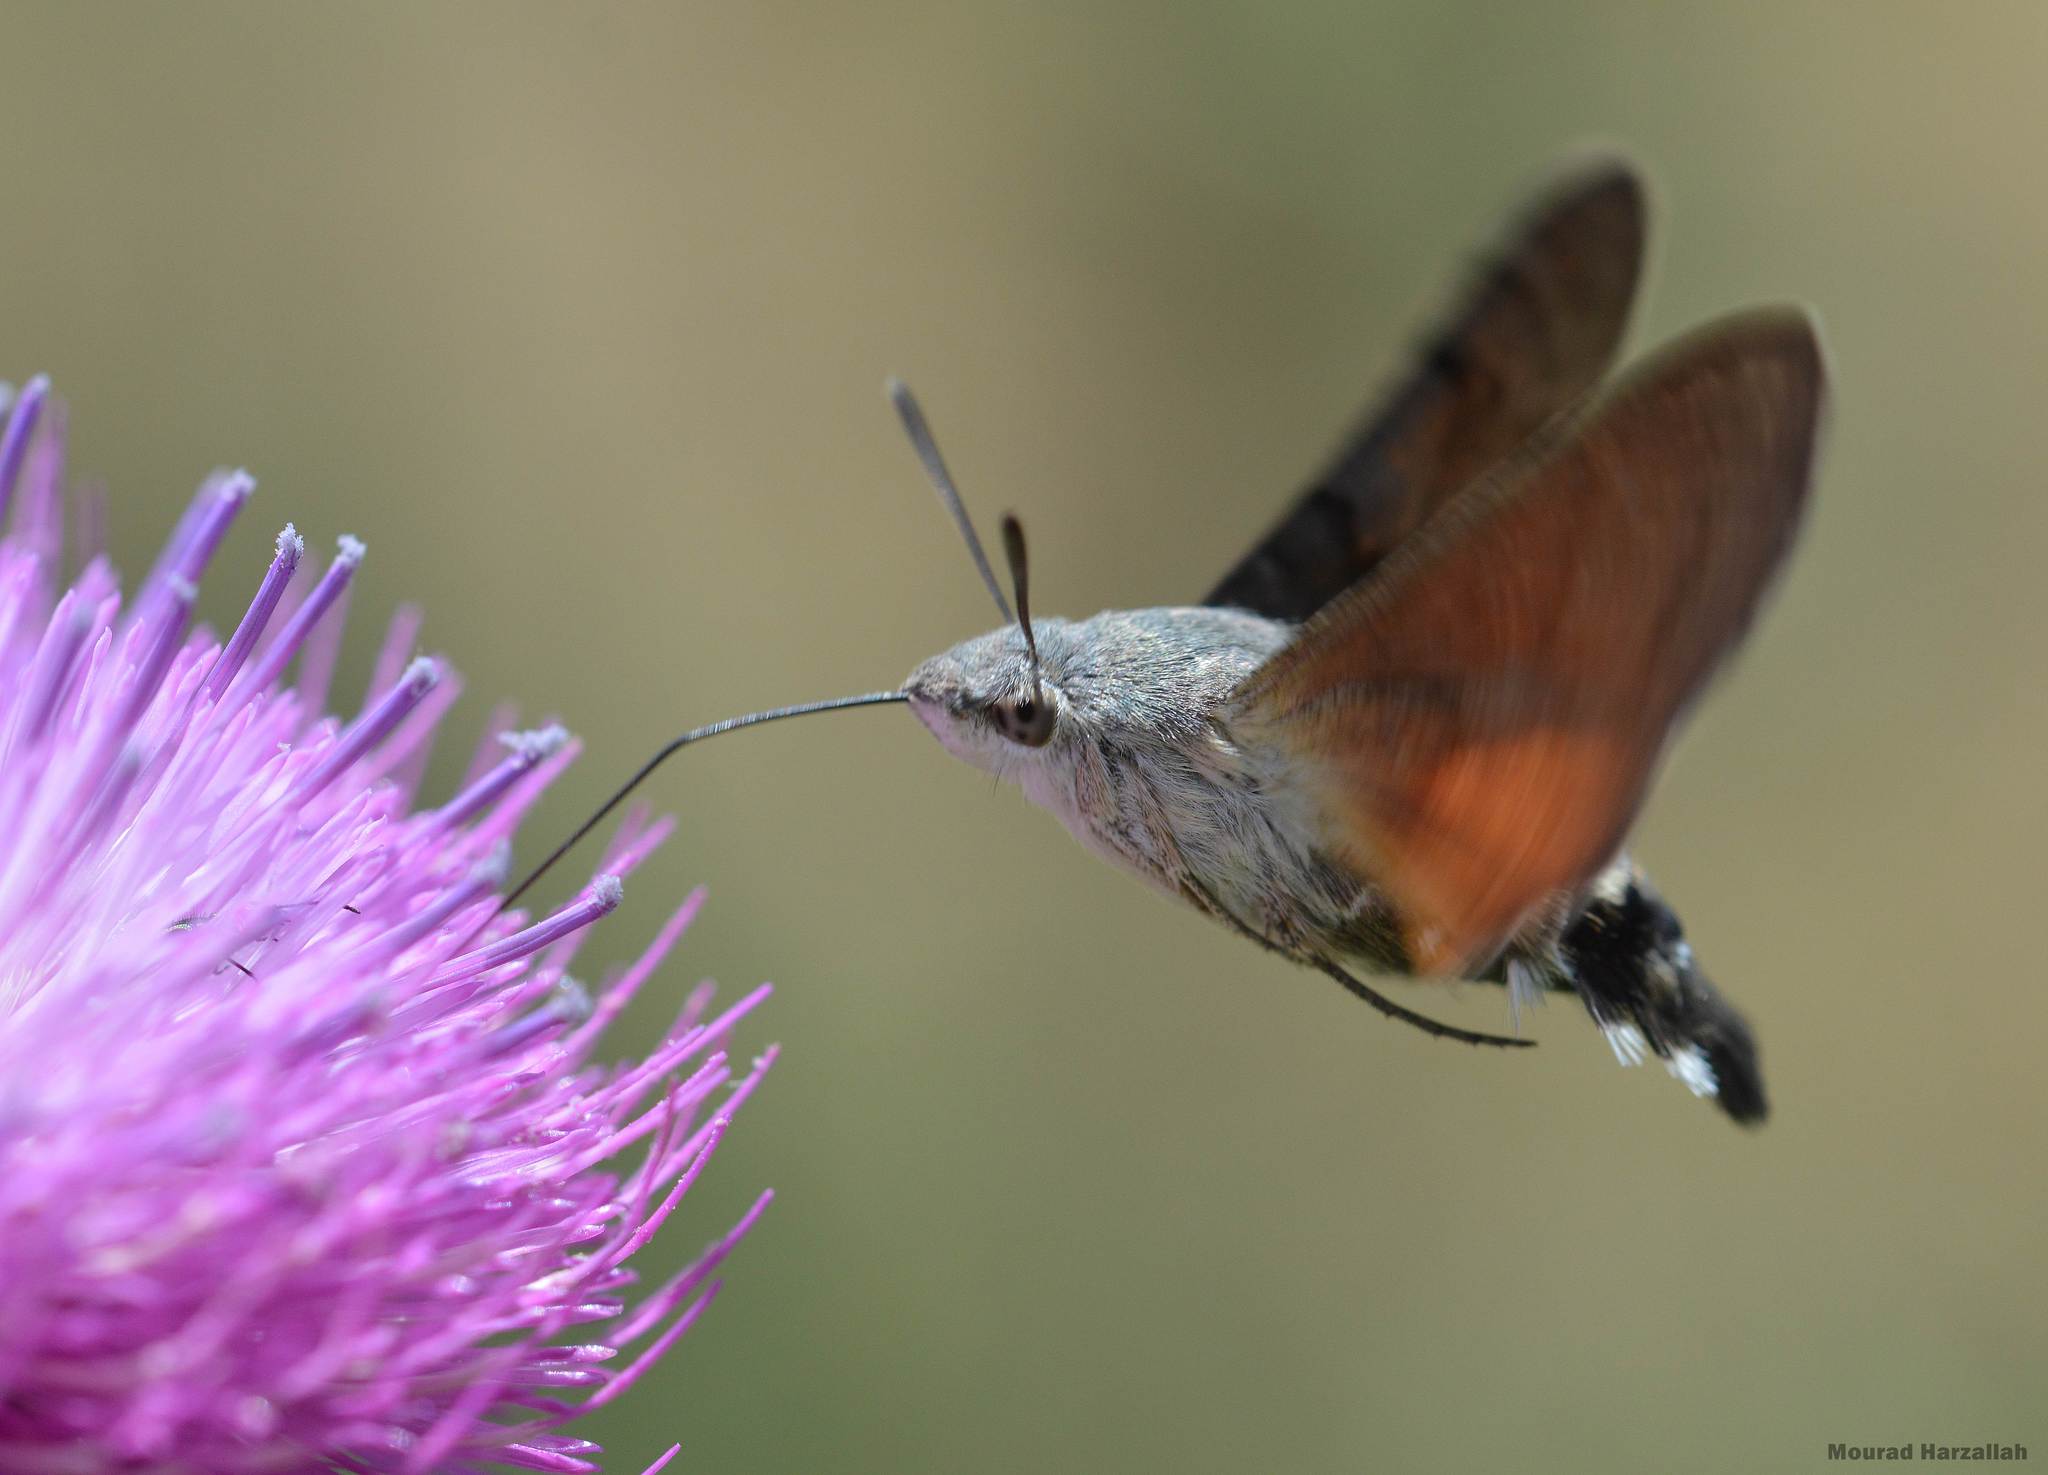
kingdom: Animalia
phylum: Arthropoda
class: Insecta
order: Lepidoptera
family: Sphingidae
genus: Macroglossum
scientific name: Macroglossum stellatarum
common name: Humming-bird hawk-moth
